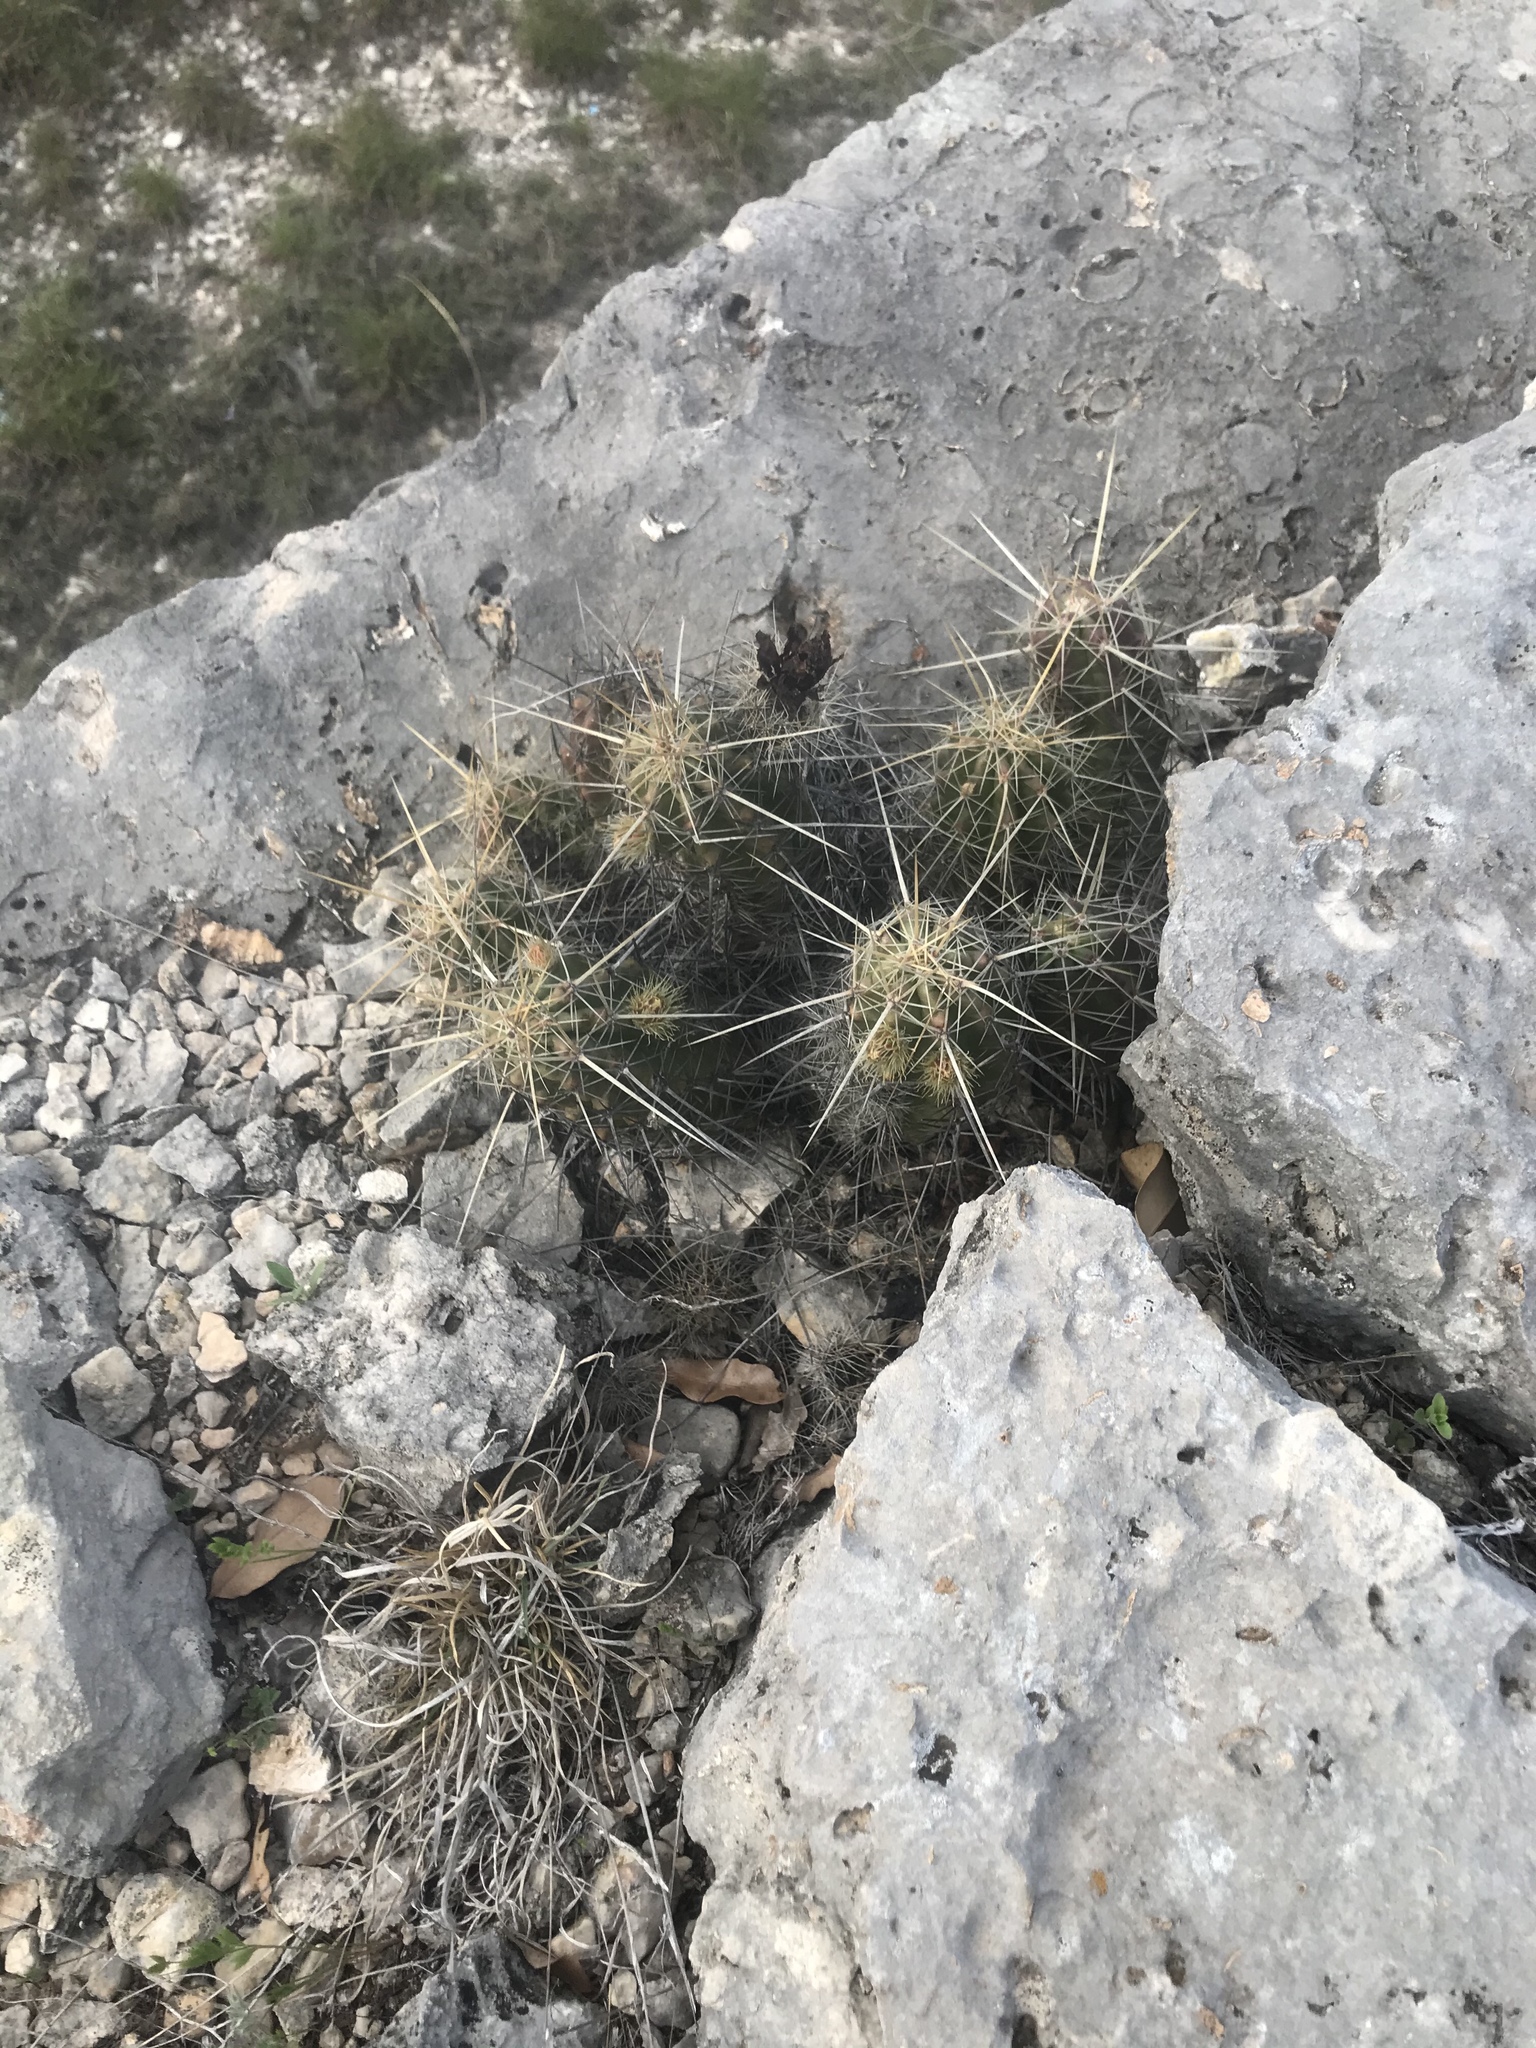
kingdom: Plantae
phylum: Tracheophyta
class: Magnoliopsida
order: Caryophyllales
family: Cactaceae
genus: Echinocereus
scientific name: Echinocereus enneacanthus
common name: Pitaya
